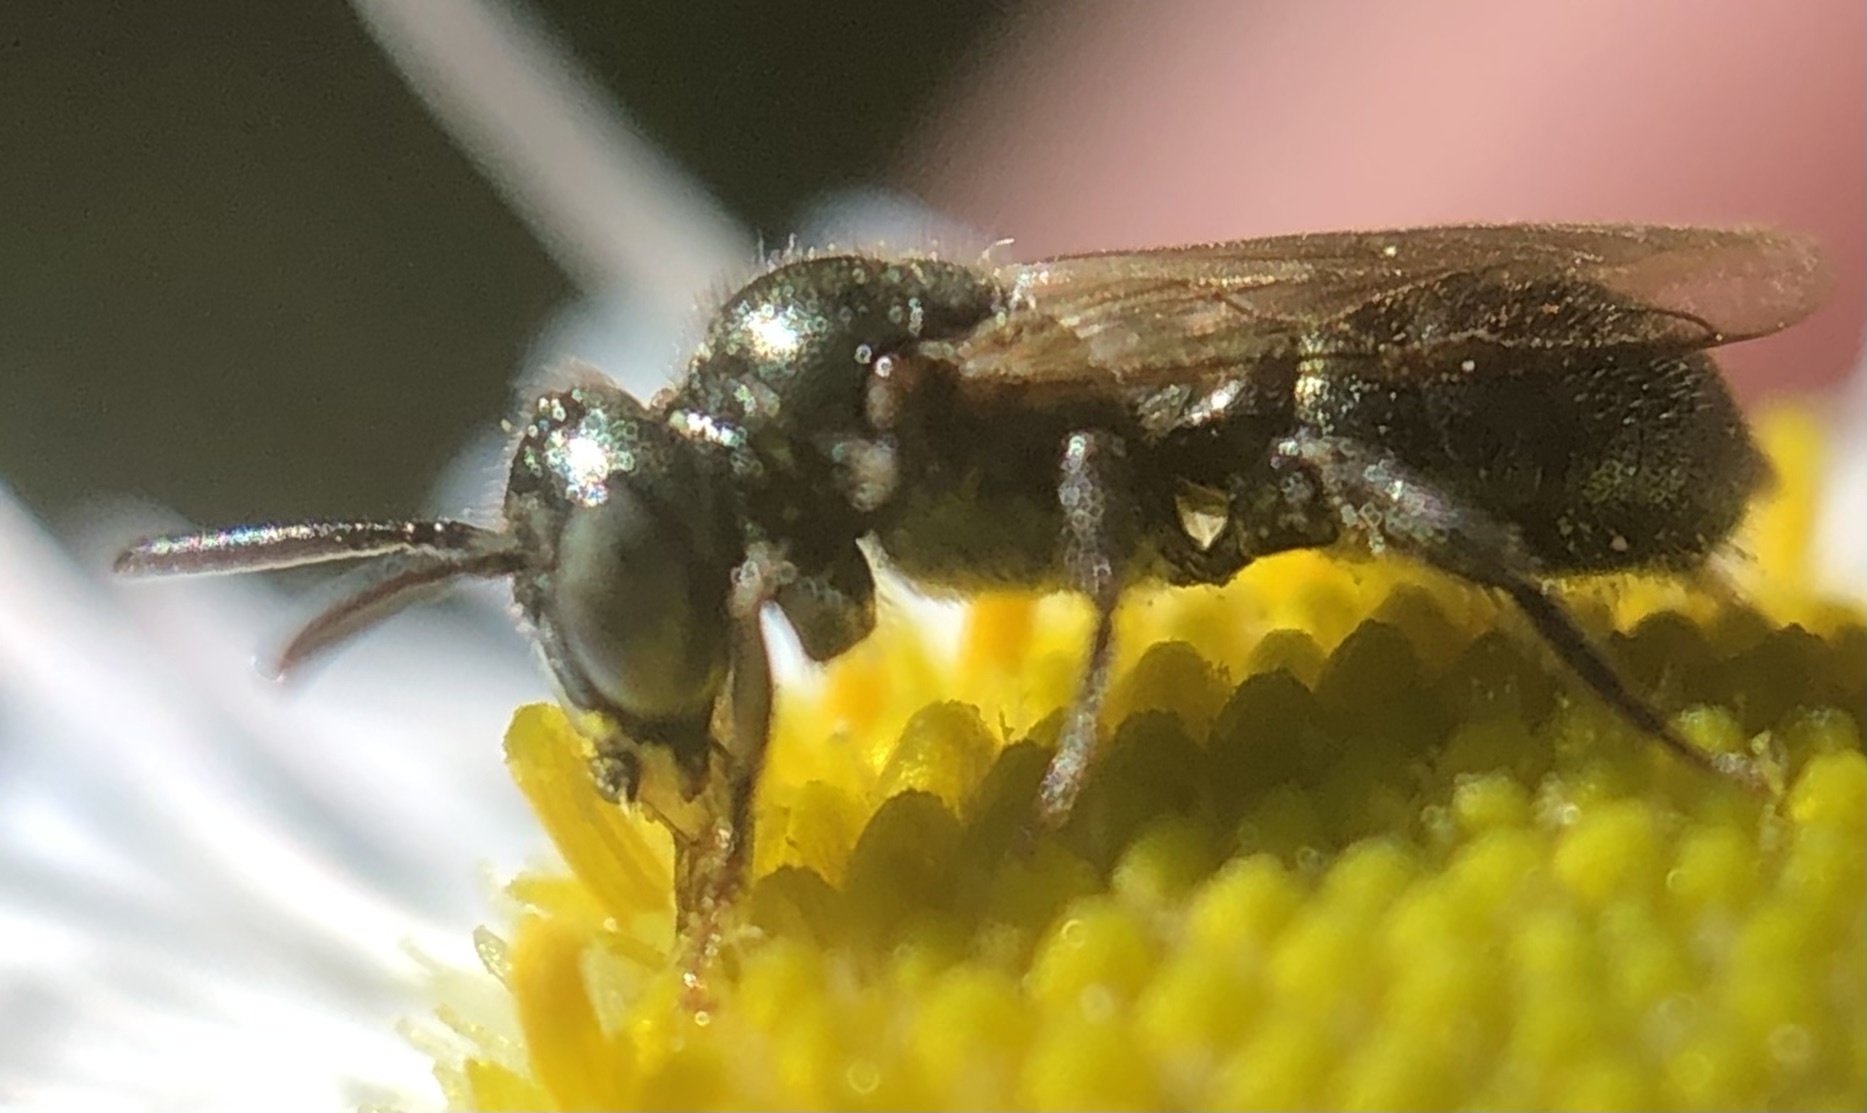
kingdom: Animalia
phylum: Arthropoda
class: Insecta
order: Hymenoptera
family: Apidae
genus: Ceratina
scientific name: Ceratina strenua
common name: Nimble carpenter bee
